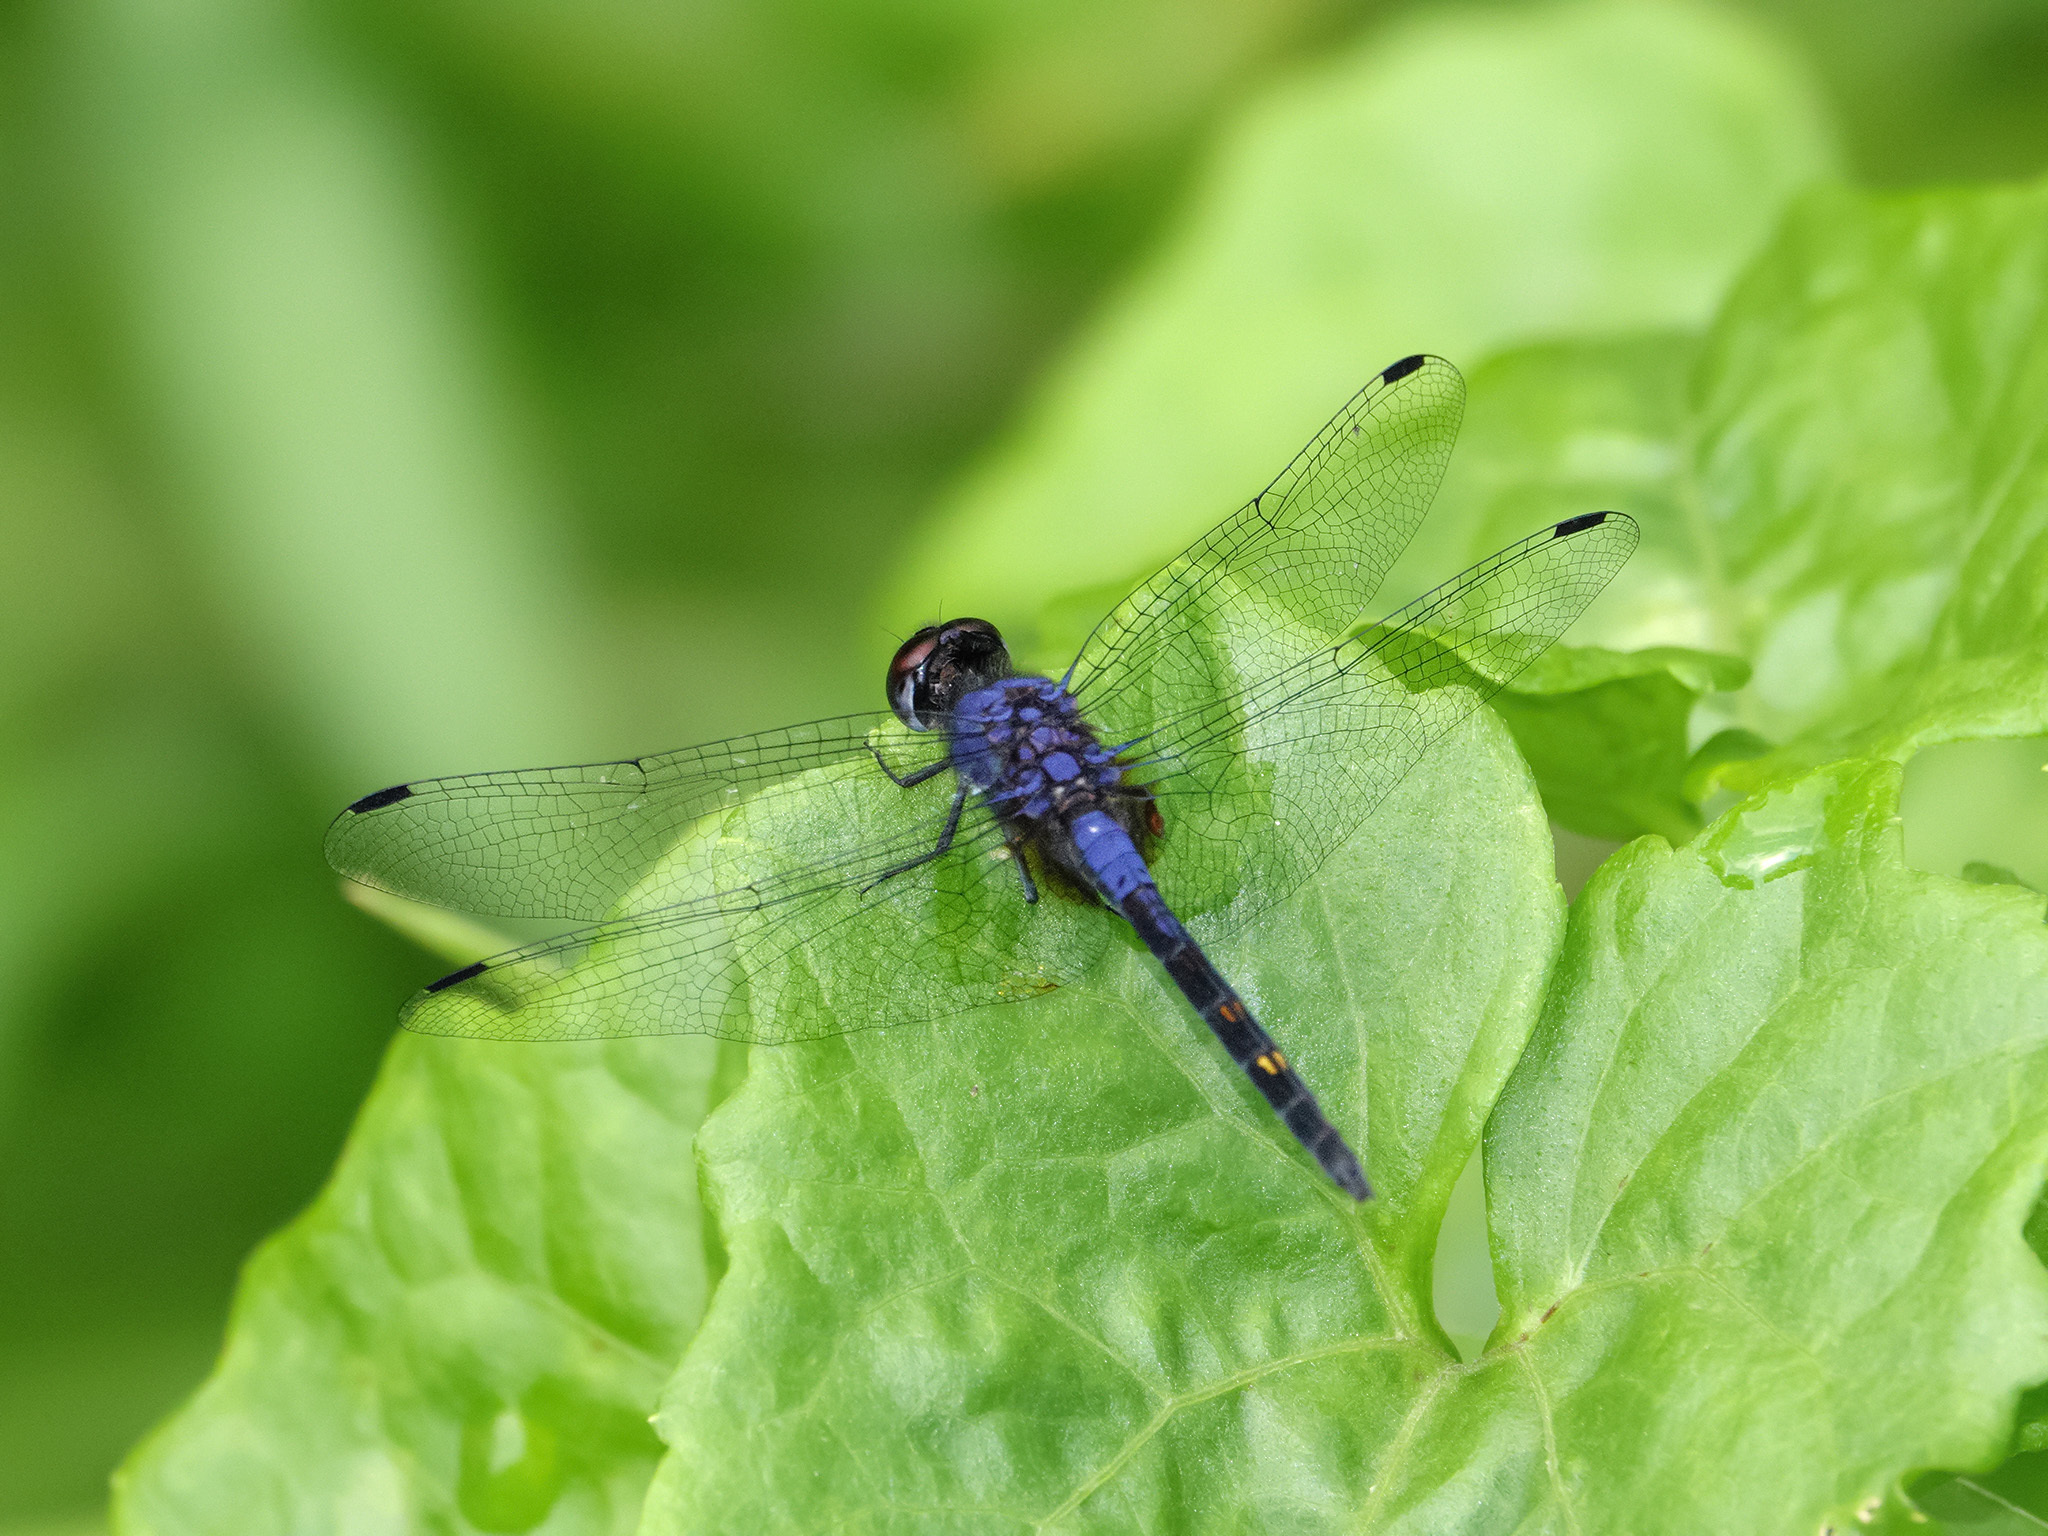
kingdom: Animalia
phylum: Arthropoda
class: Insecta
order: Odonata
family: Libellulidae
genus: Trithemis
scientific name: Trithemis festiva
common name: Indigo dropwing
